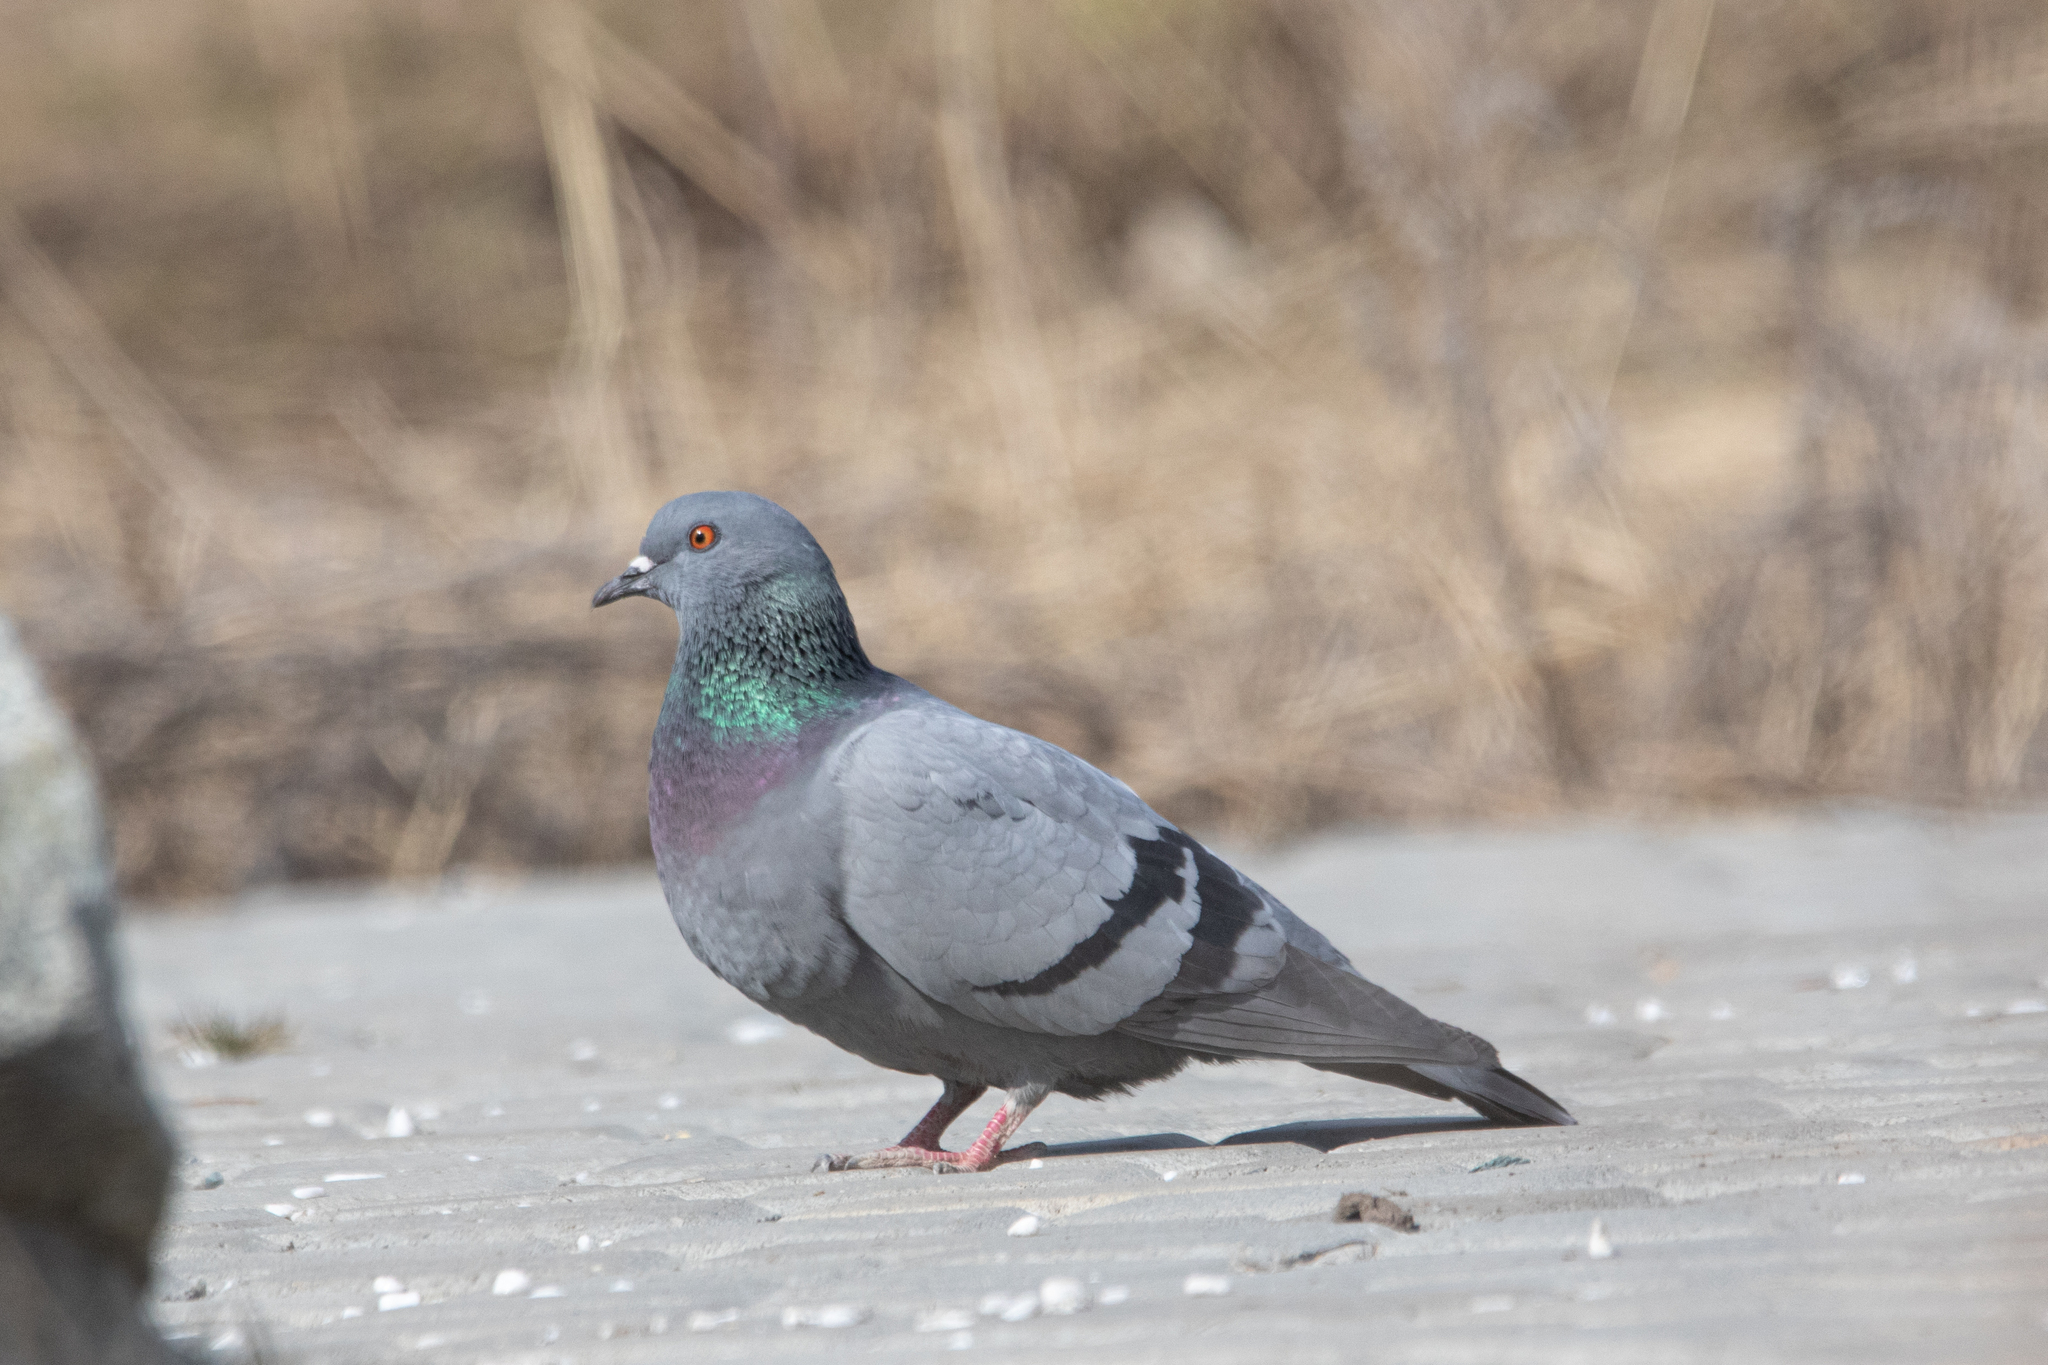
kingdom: Animalia
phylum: Chordata
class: Aves
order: Columbiformes
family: Columbidae
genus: Columba
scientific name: Columba livia
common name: Rock pigeon
